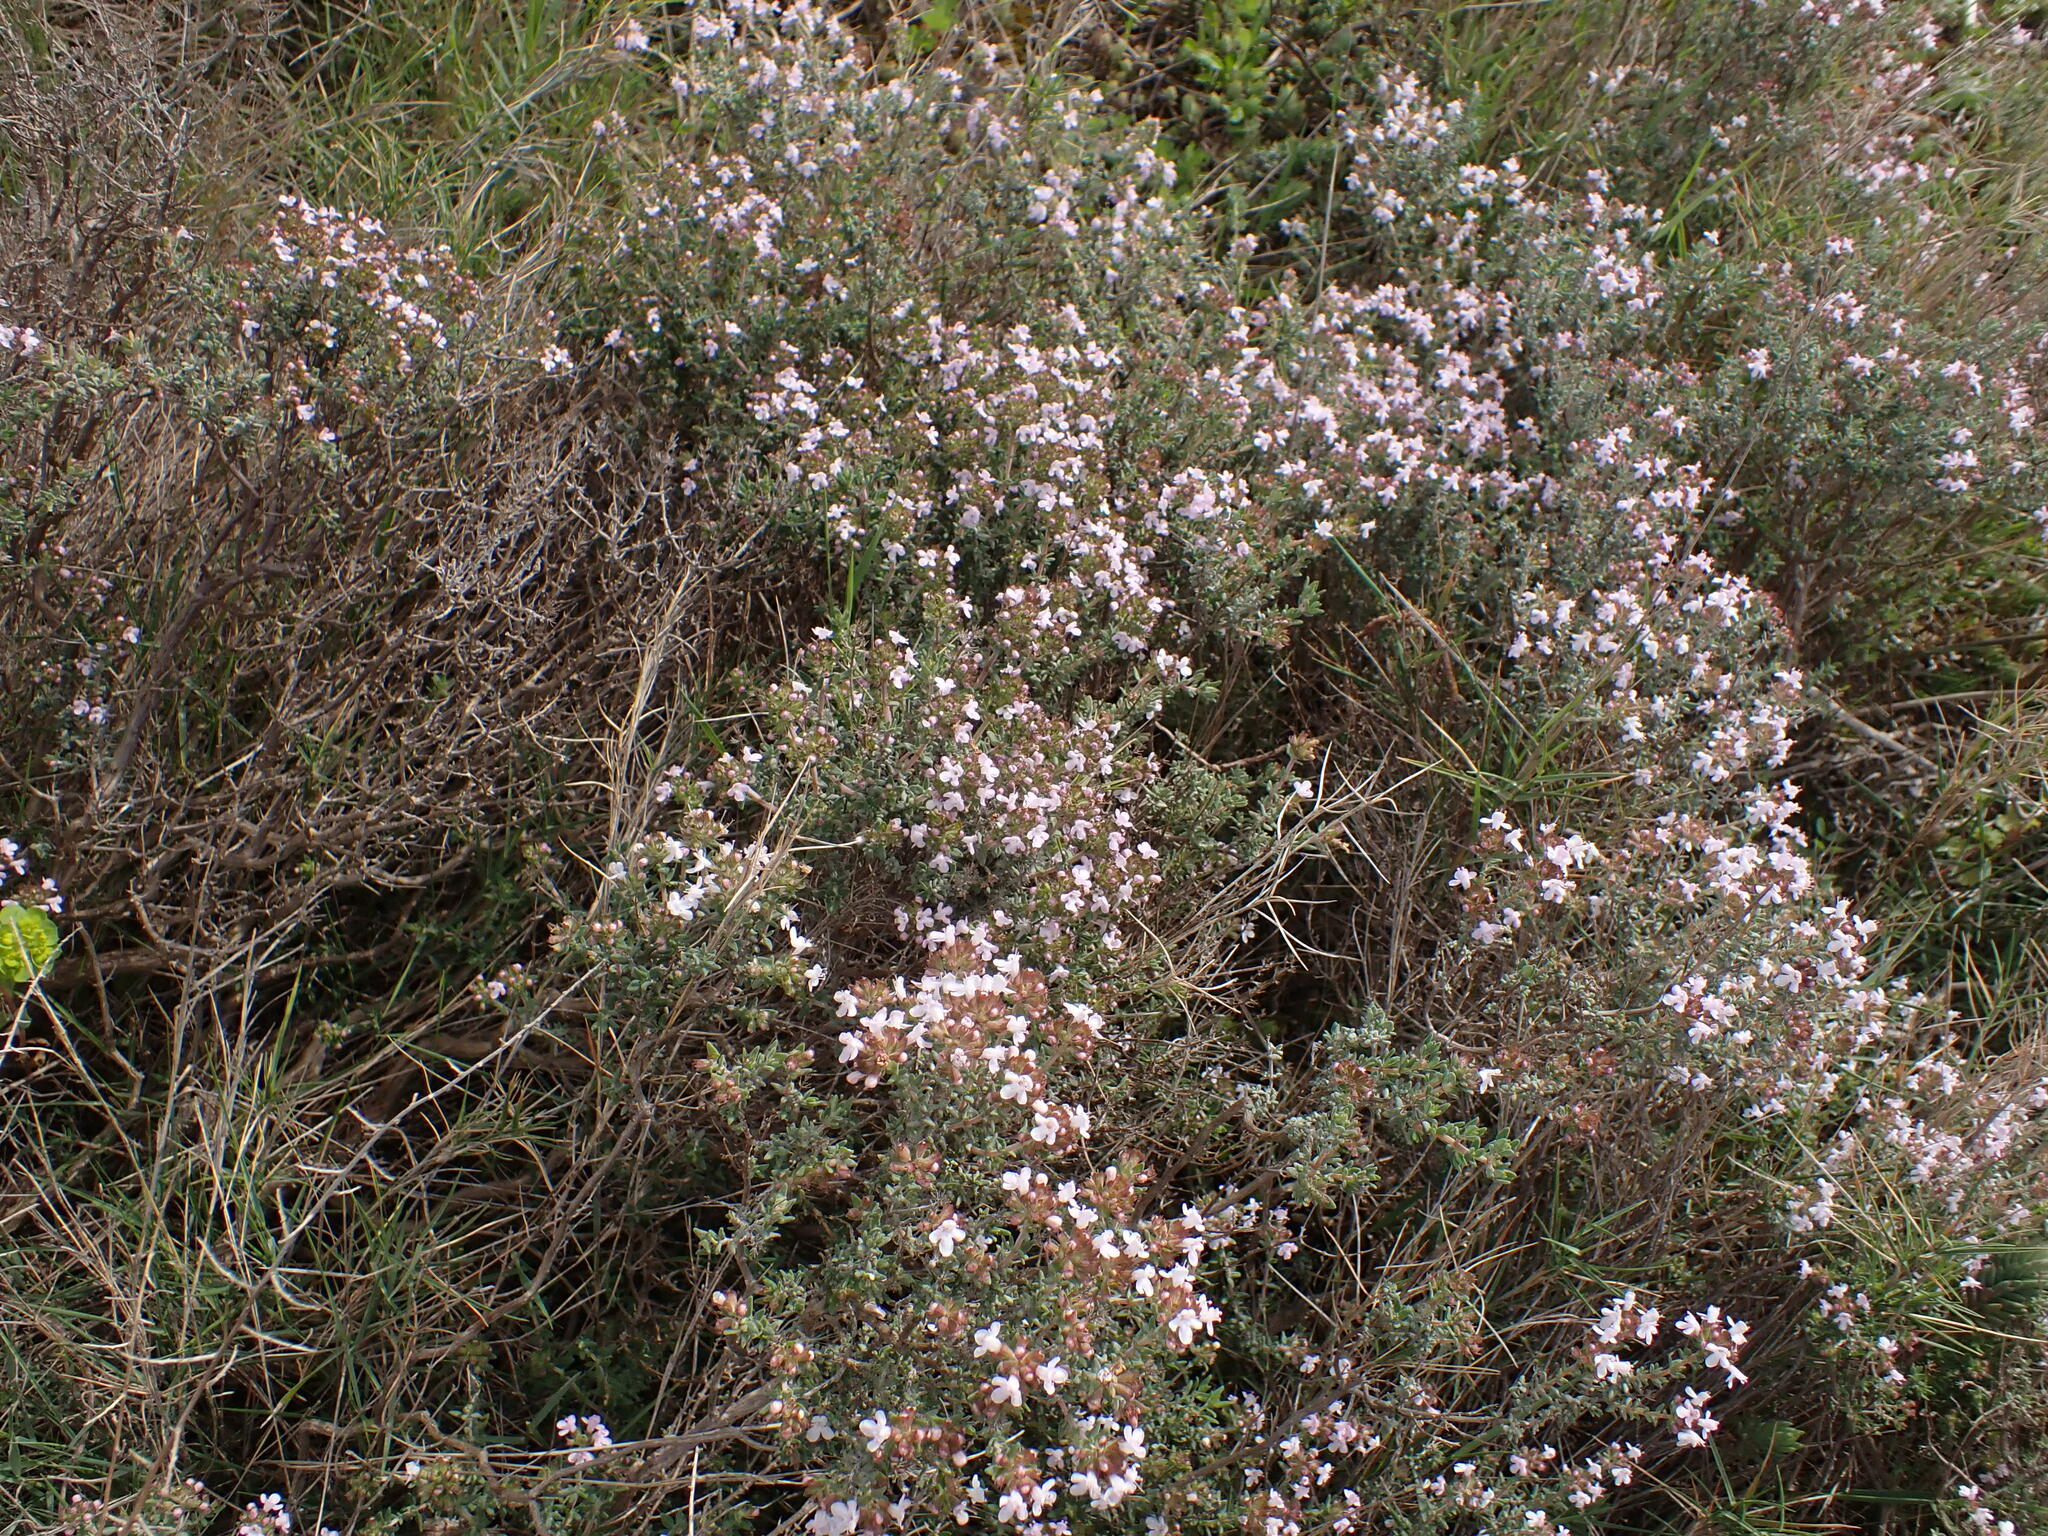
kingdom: Plantae
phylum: Tracheophyta
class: Magnoliopsida
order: Lamiales
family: Lamiaceae
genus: Thymus
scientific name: Thymus vulgaris
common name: Garden thyme
